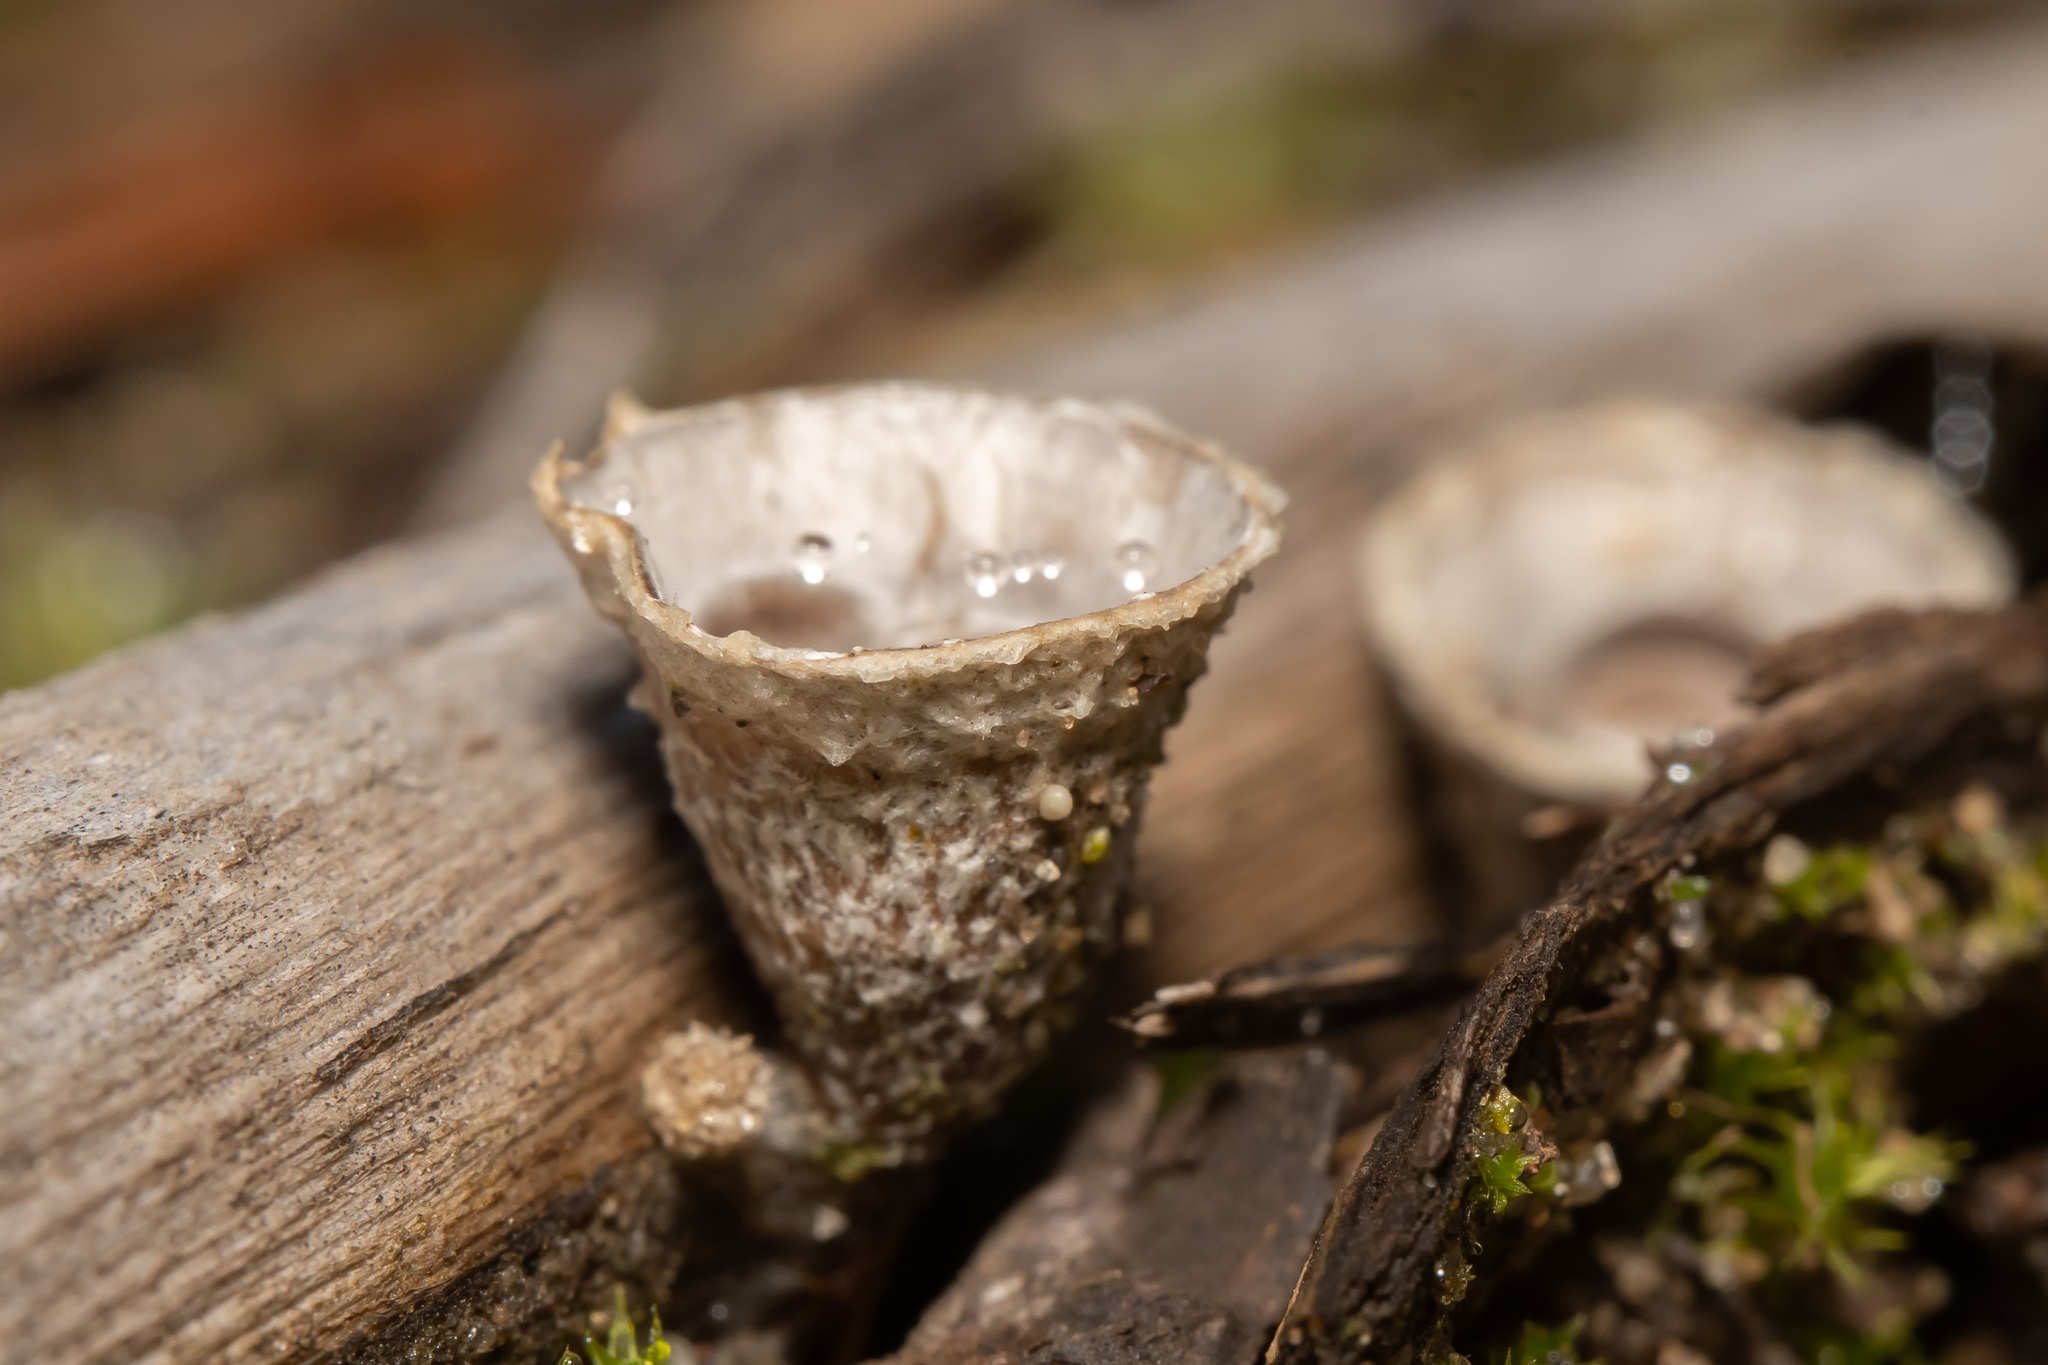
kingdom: Fungi
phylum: Basidiomycota
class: Agaricomycetes
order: Agaricales
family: Agaricaceae
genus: Cyathus
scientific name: Cyathus olla
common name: Field bird's nest
